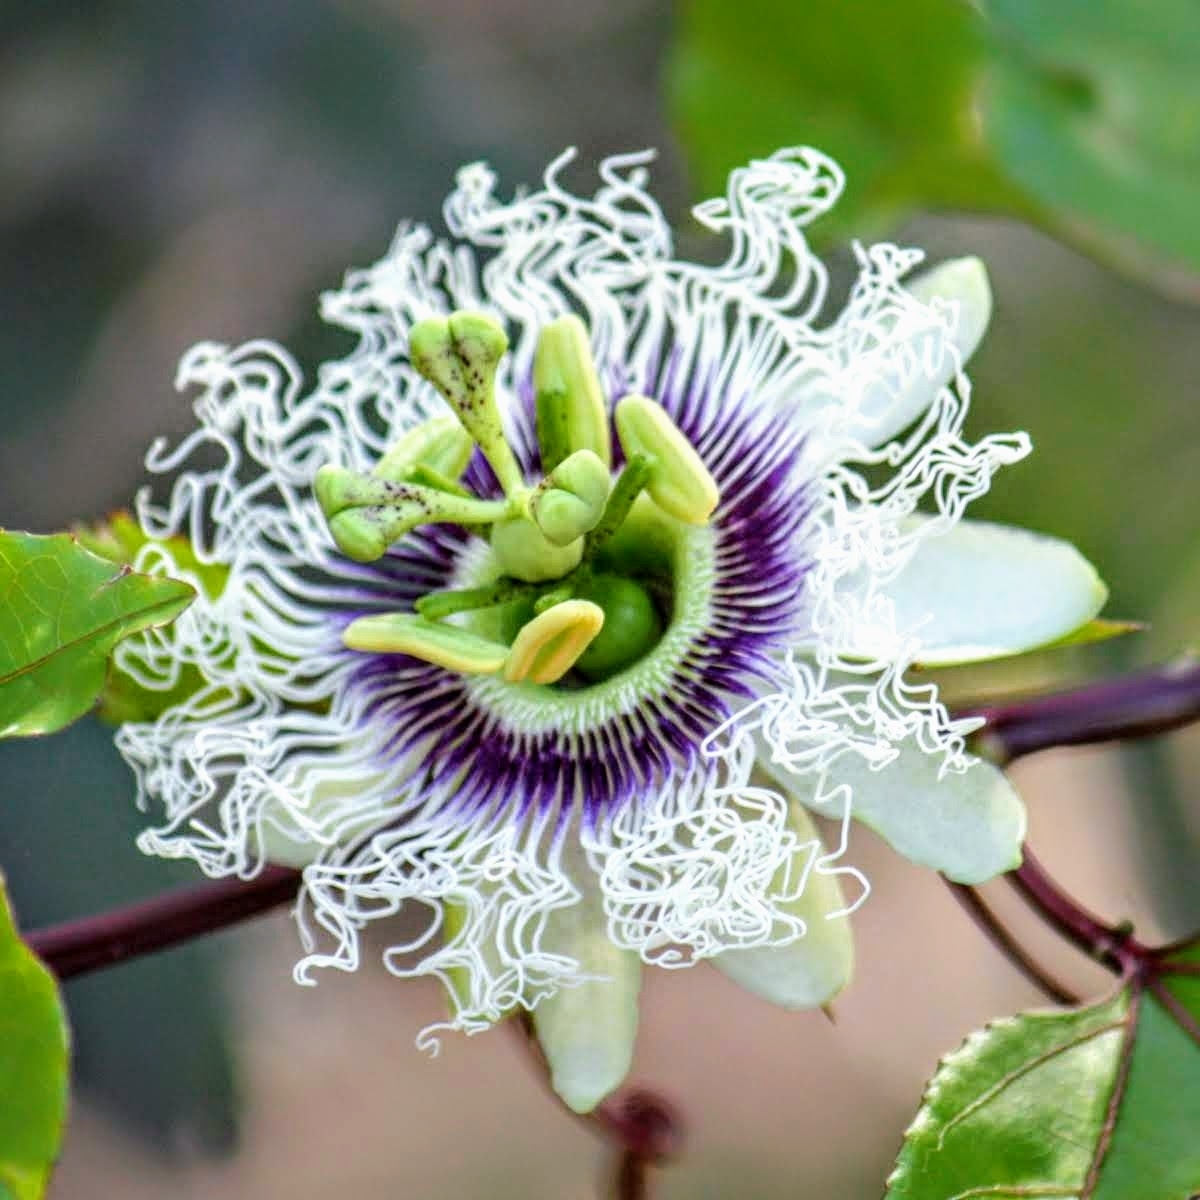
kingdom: Plantae
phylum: Tracheophyta
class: Magnoliopsida
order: Malpighiales
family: Passifloraceae
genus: Passiflora
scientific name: Passiflora edulis
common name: Purple granadilla
